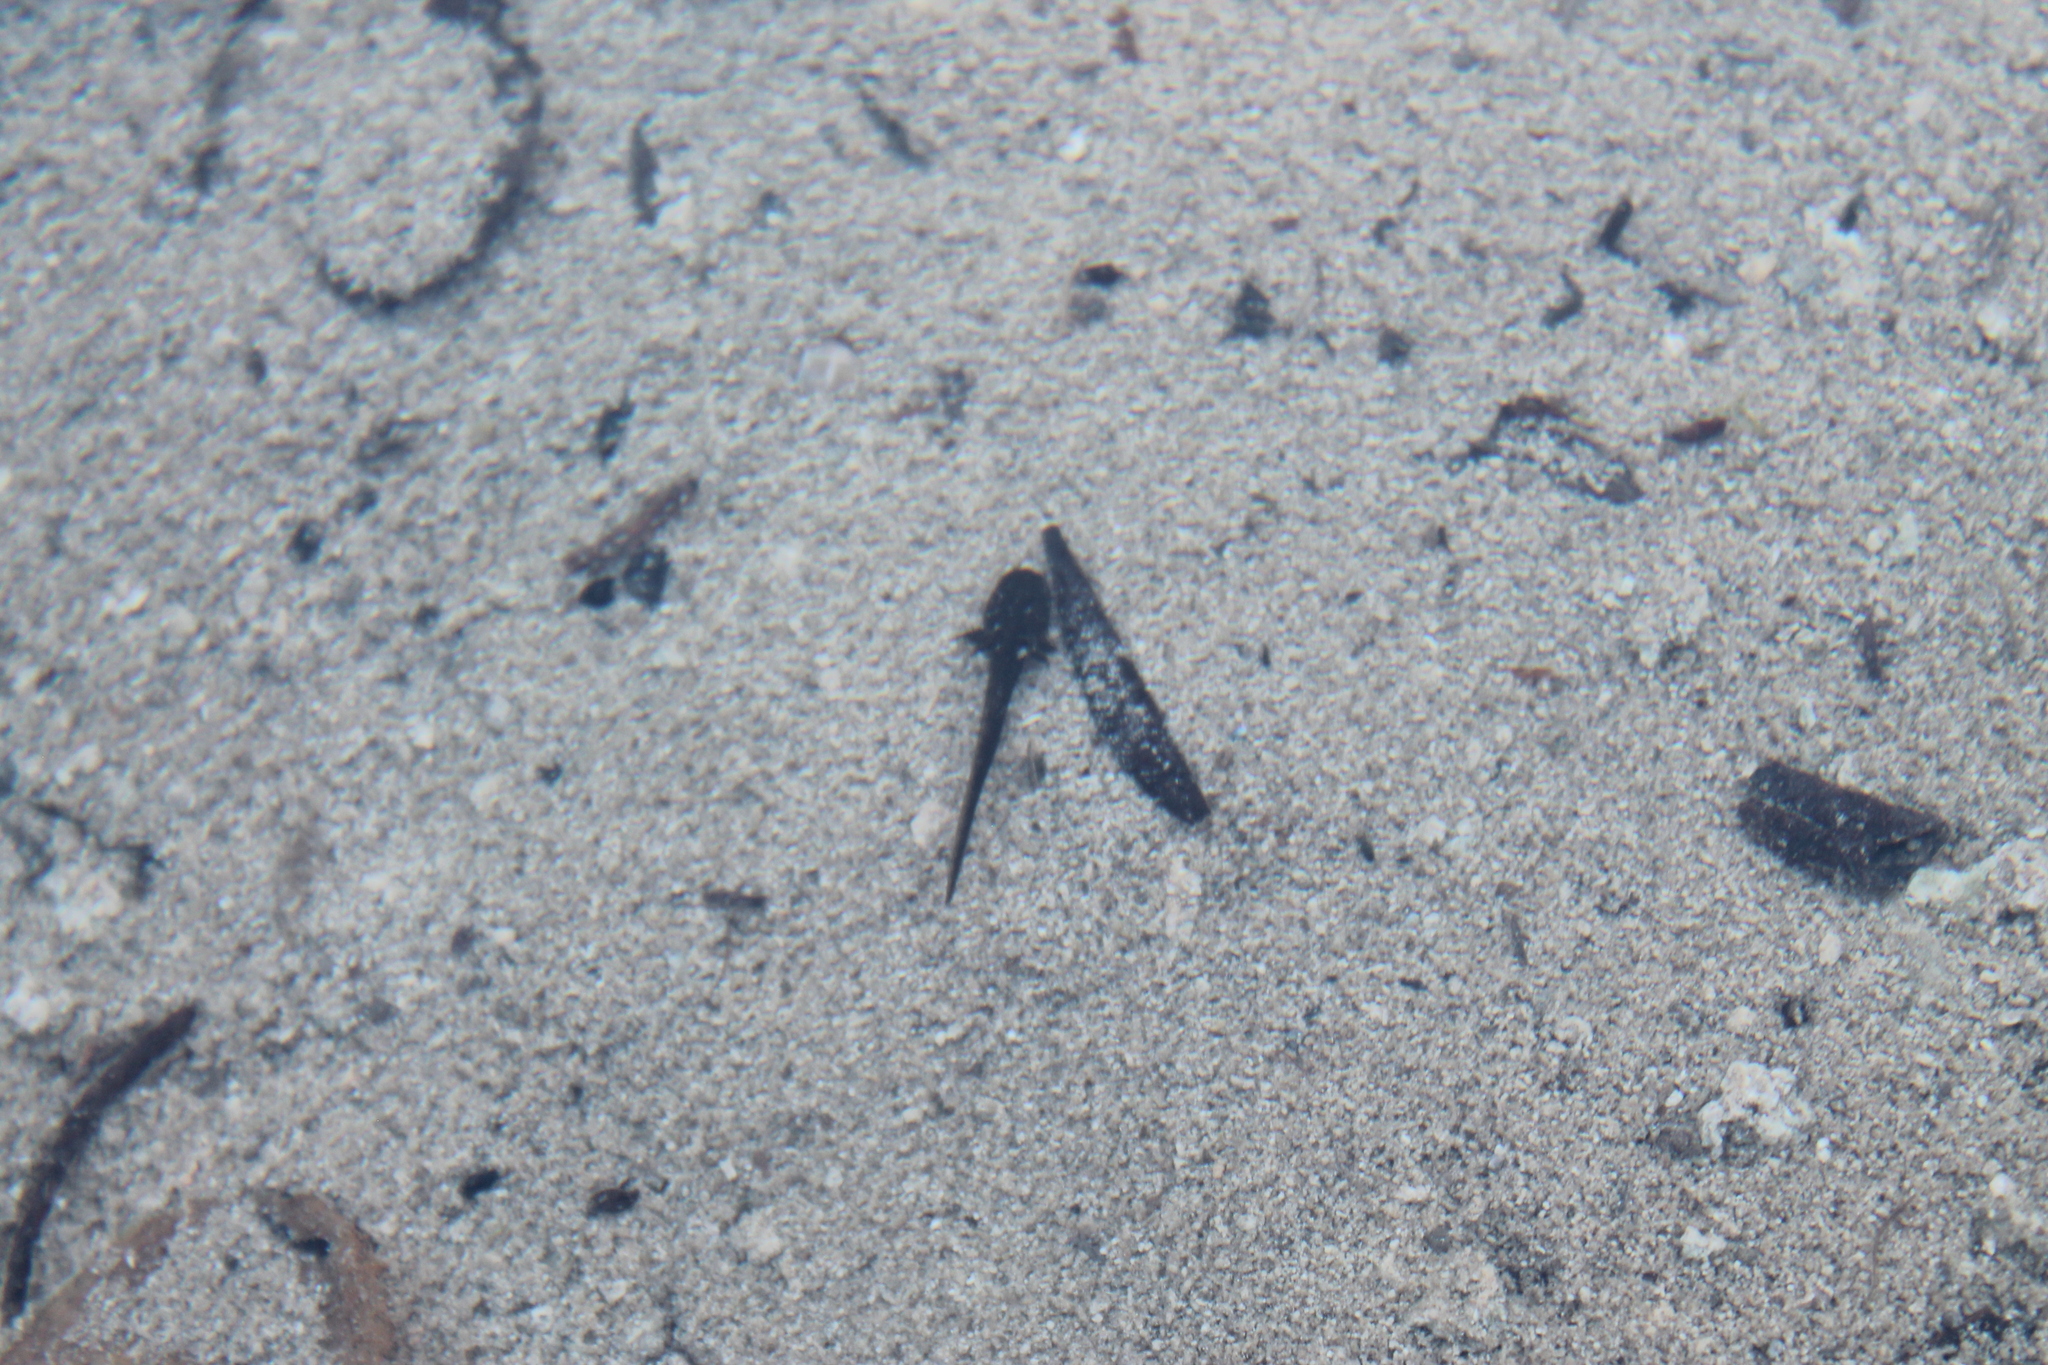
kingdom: Animalia
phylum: Chordata
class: Amphibia
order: Caudata
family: Ambystomatidae
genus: Ambystoma
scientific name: Ambystoma barbouri
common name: Streamside salamander
